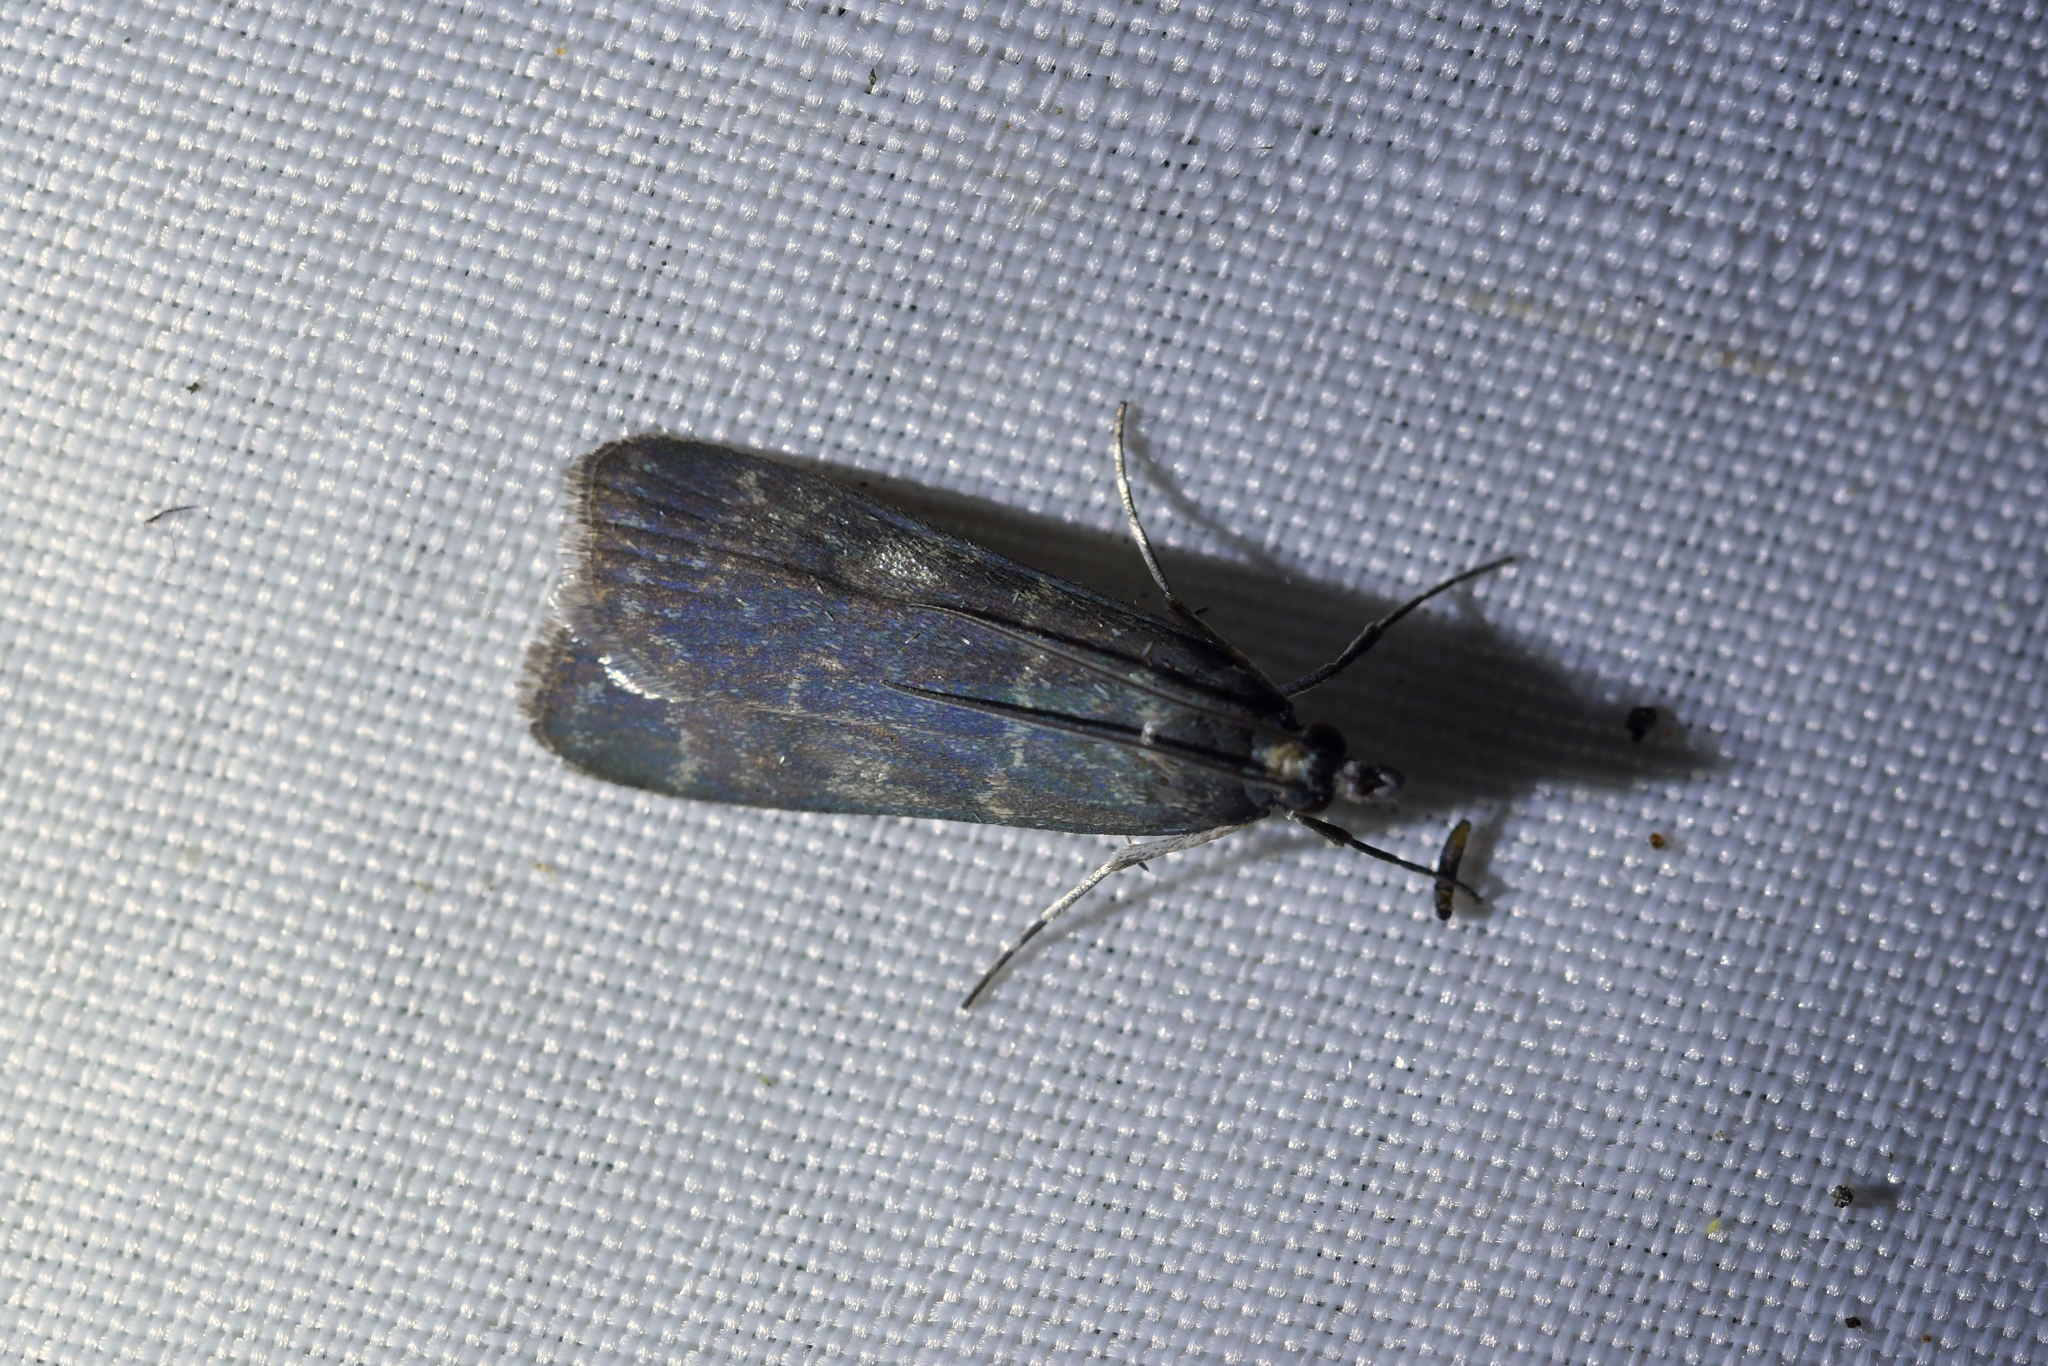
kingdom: Animalia
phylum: Arthropoda
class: Insecta
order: Lepidoptera
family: Crambidae
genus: Eudonia
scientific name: Eudonia cataxesta
